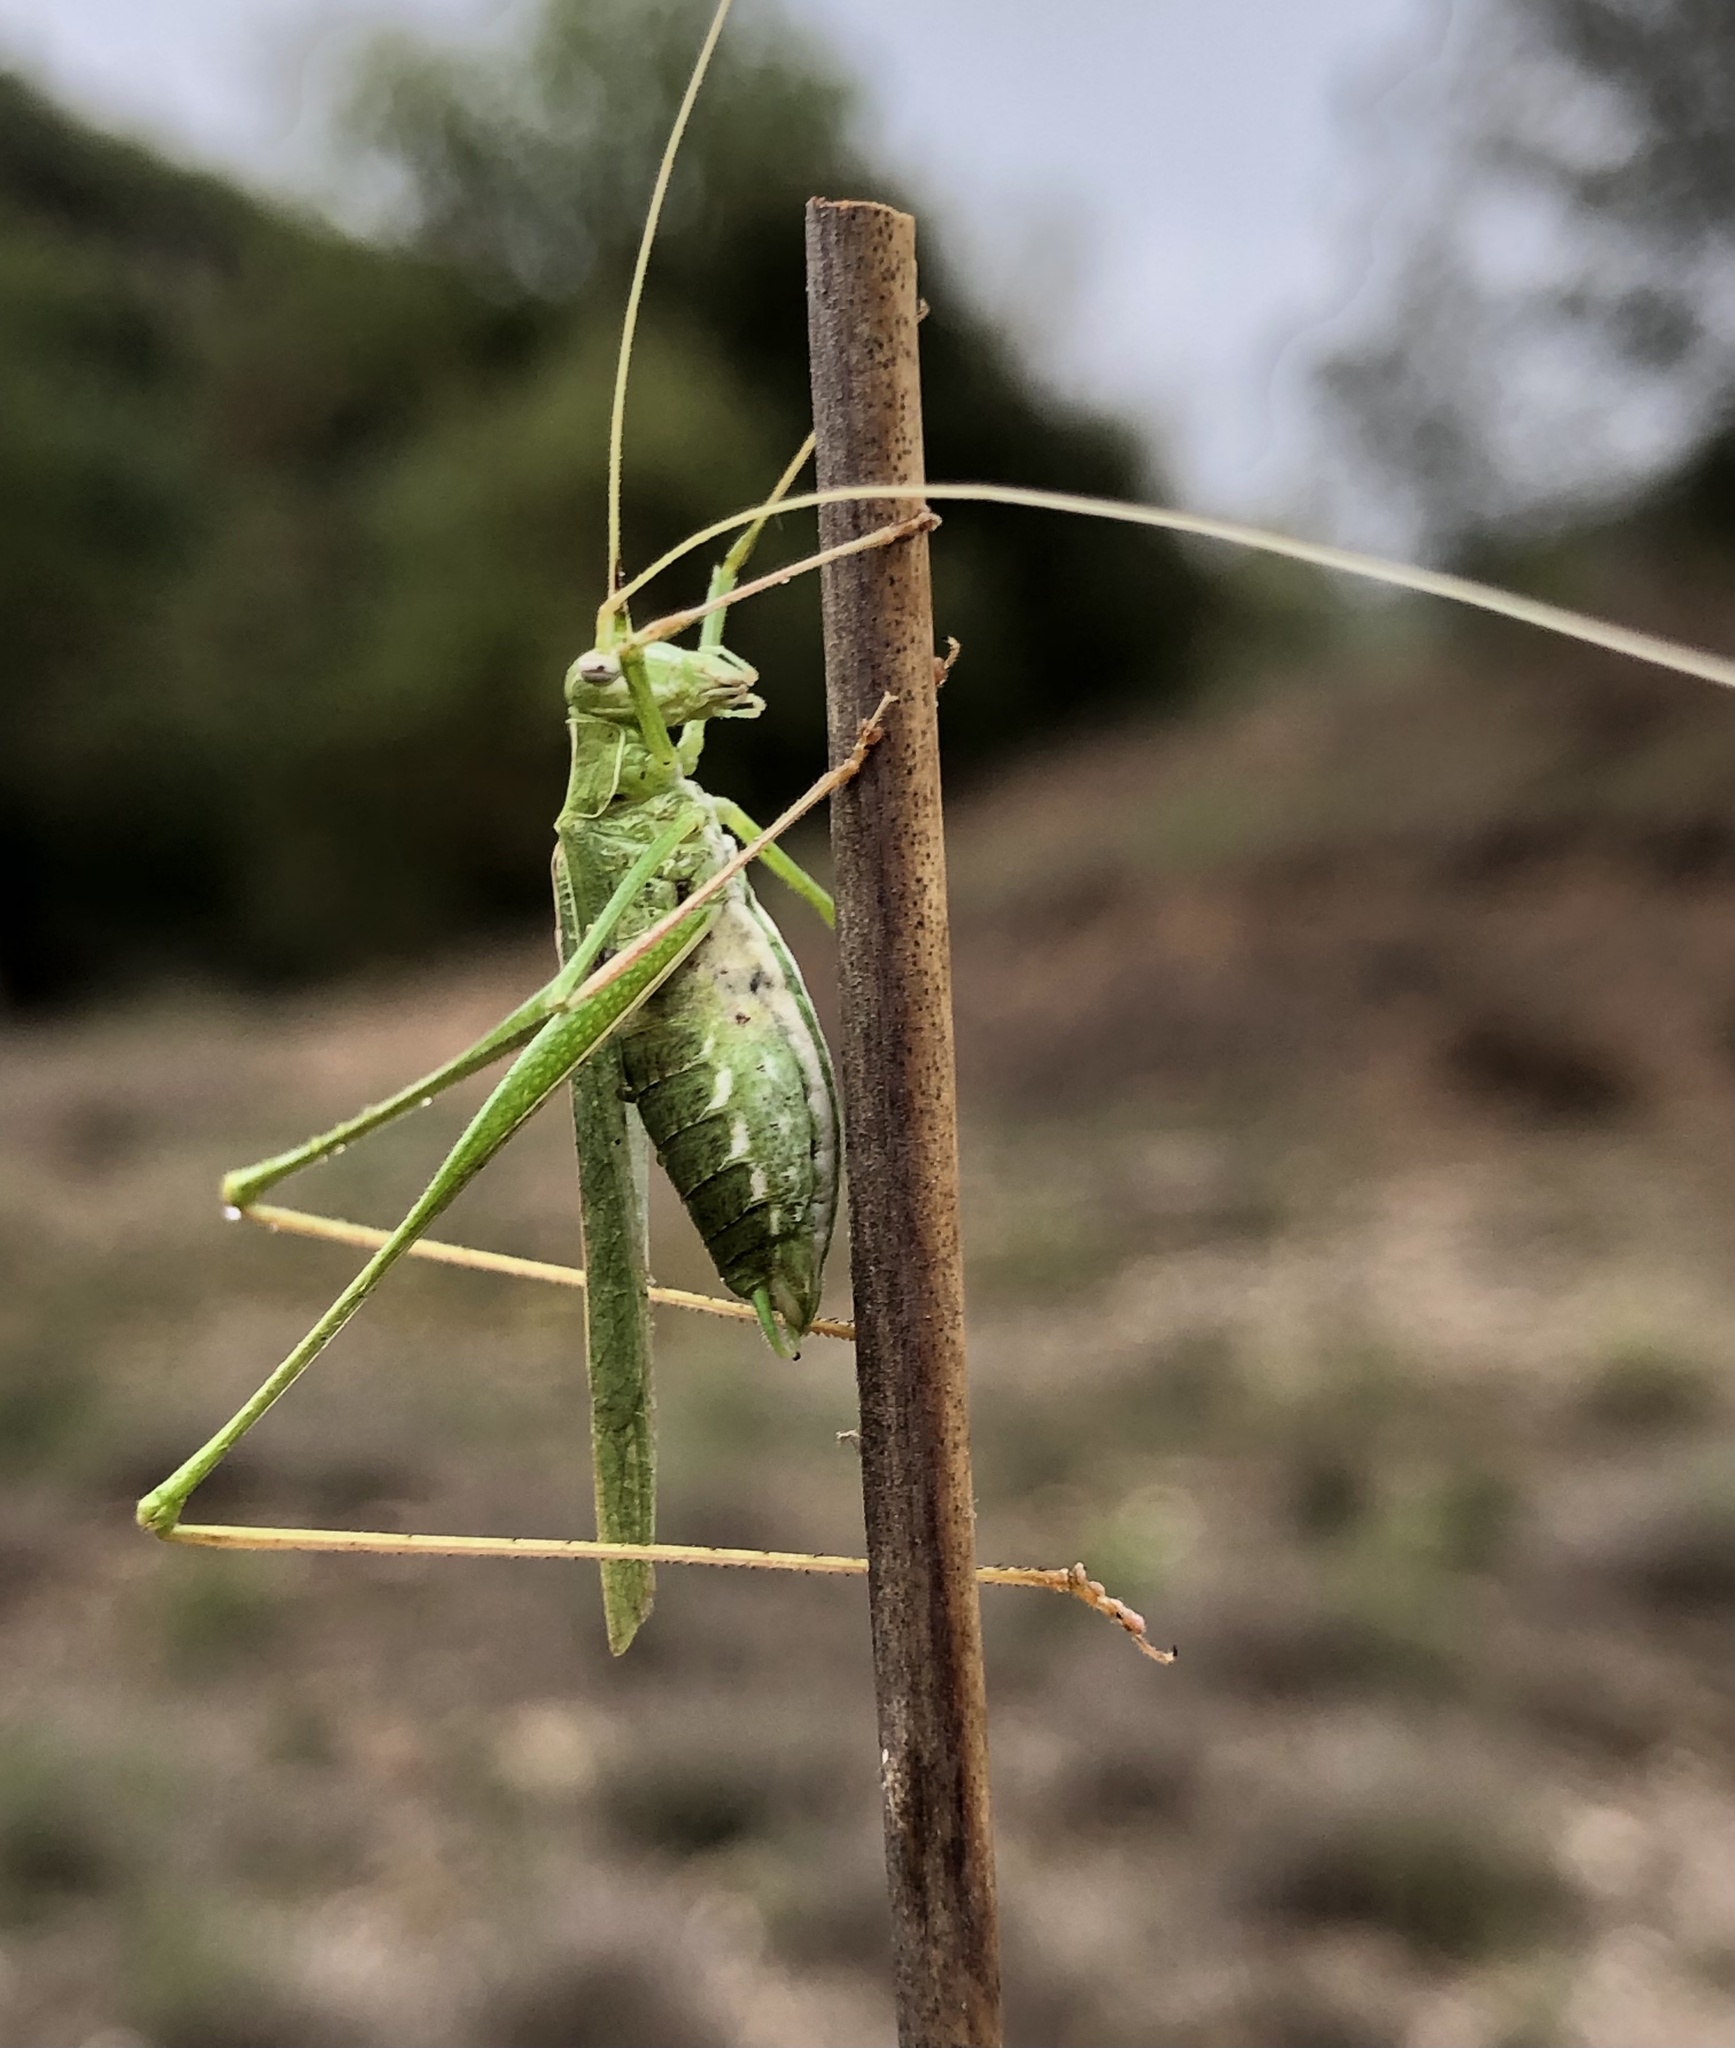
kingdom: Animalia
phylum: Arthropoda
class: Insecta
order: Orthoptera
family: Tettigoniidae
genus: Tylopsis
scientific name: Tylopsis lilifolia
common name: Lily bush-cricket
